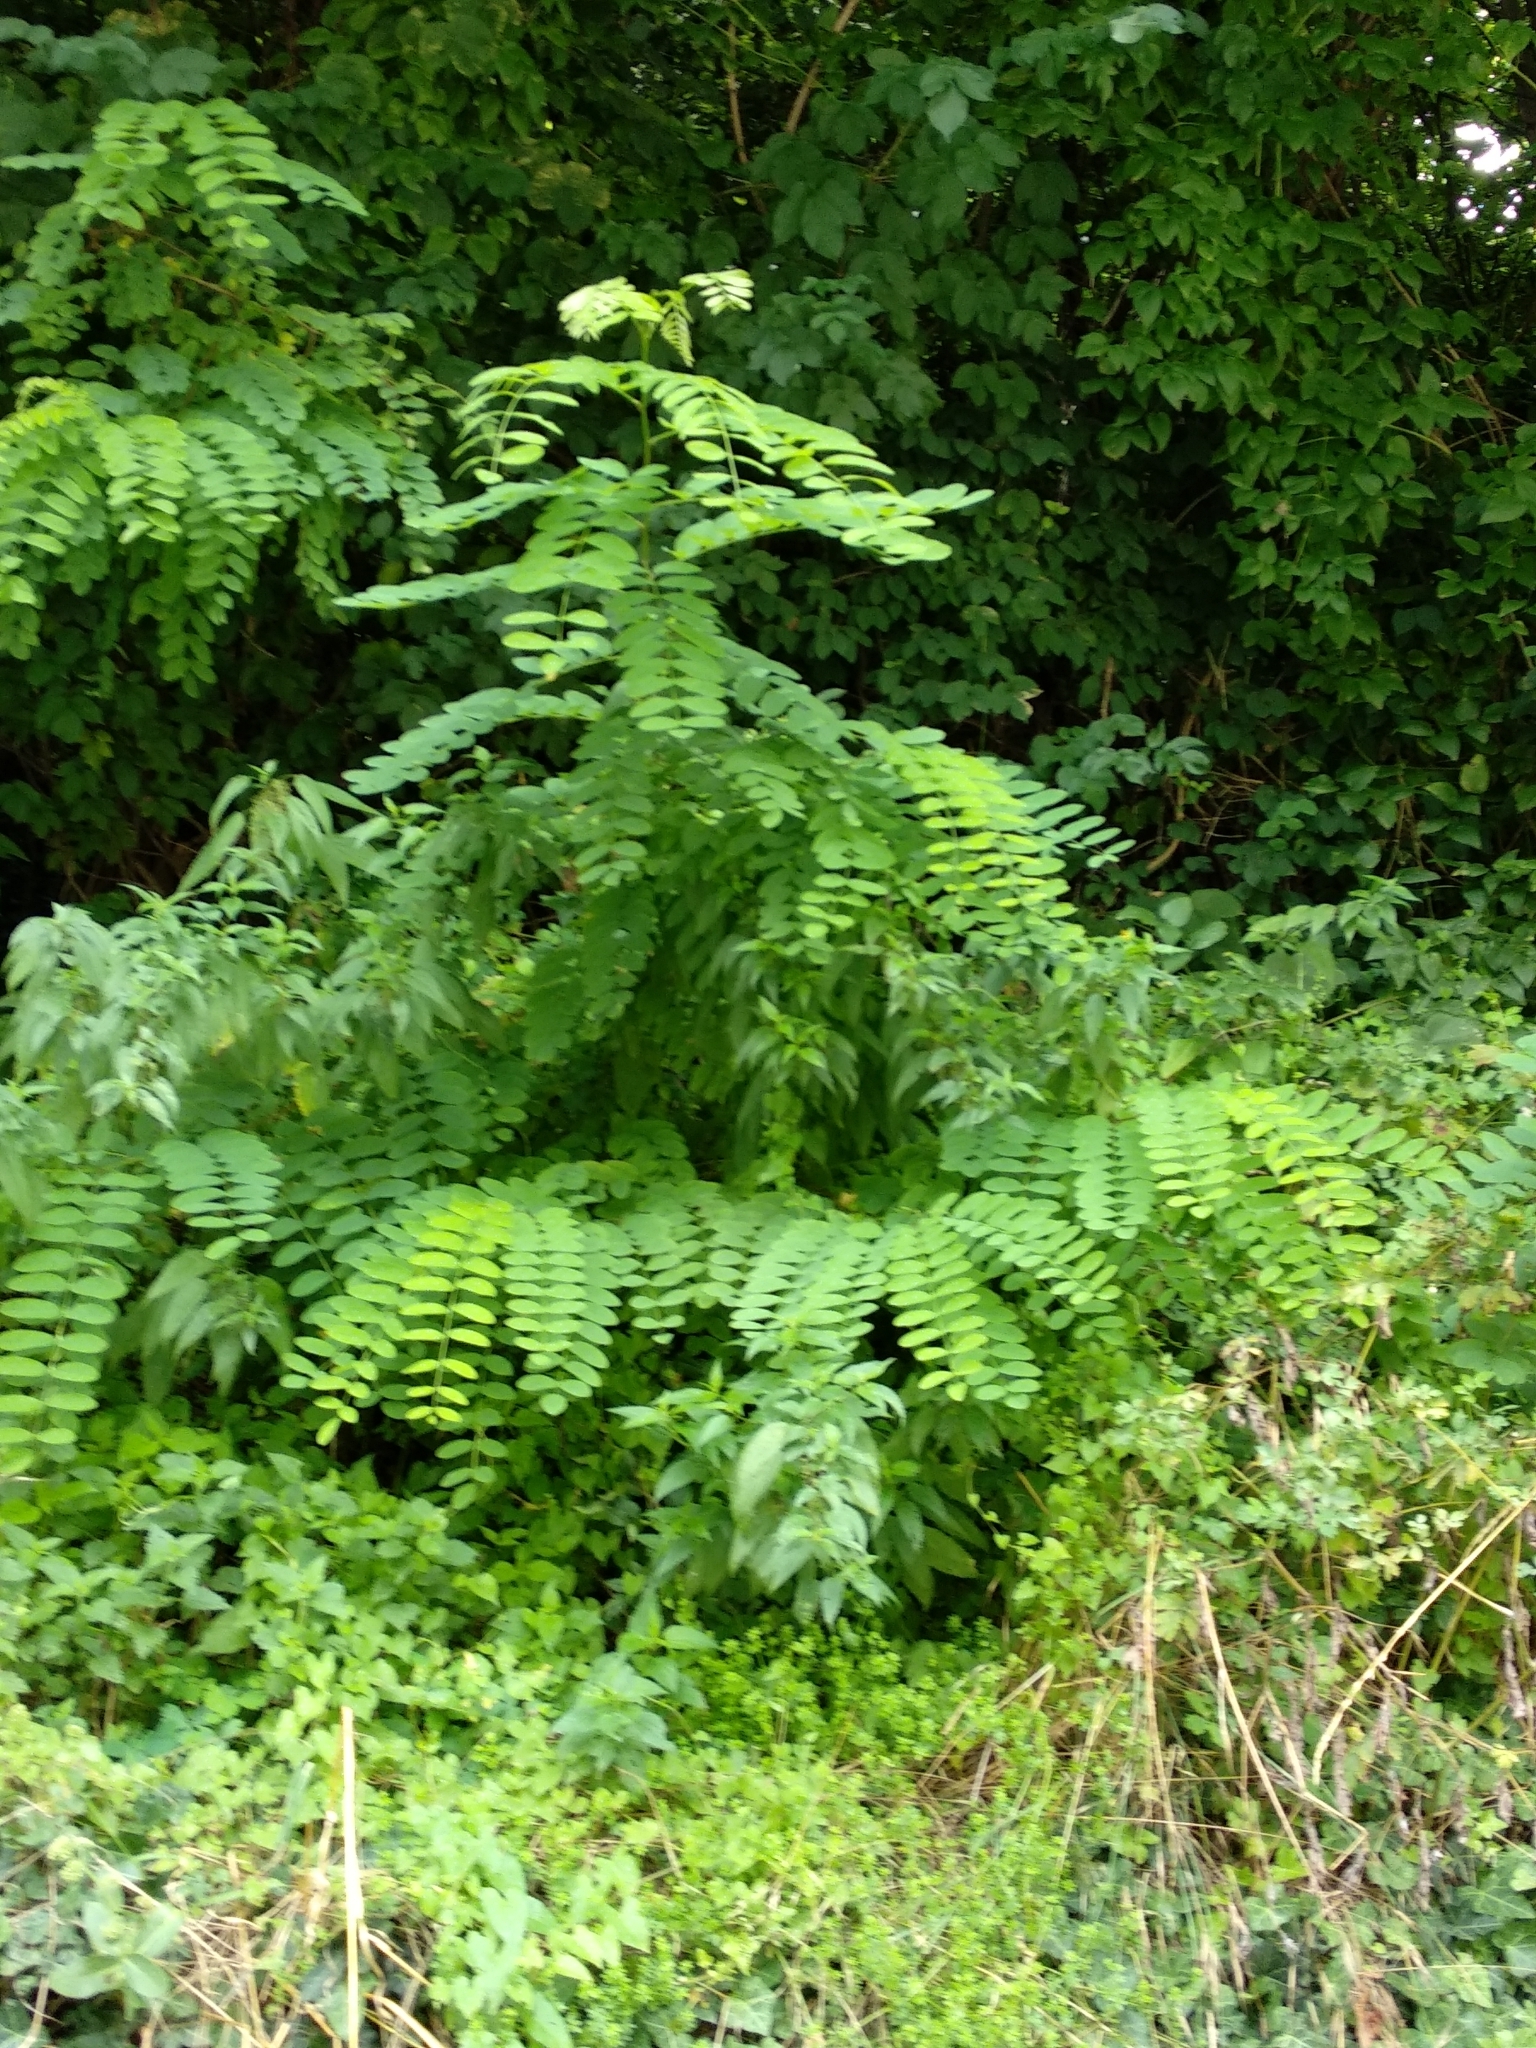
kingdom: Plantae
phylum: Tracheophyta
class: Magnoliopsida
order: Fabales
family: Fabaceae
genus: Robinia
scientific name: Robinia pseudoacacia
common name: Black locust
